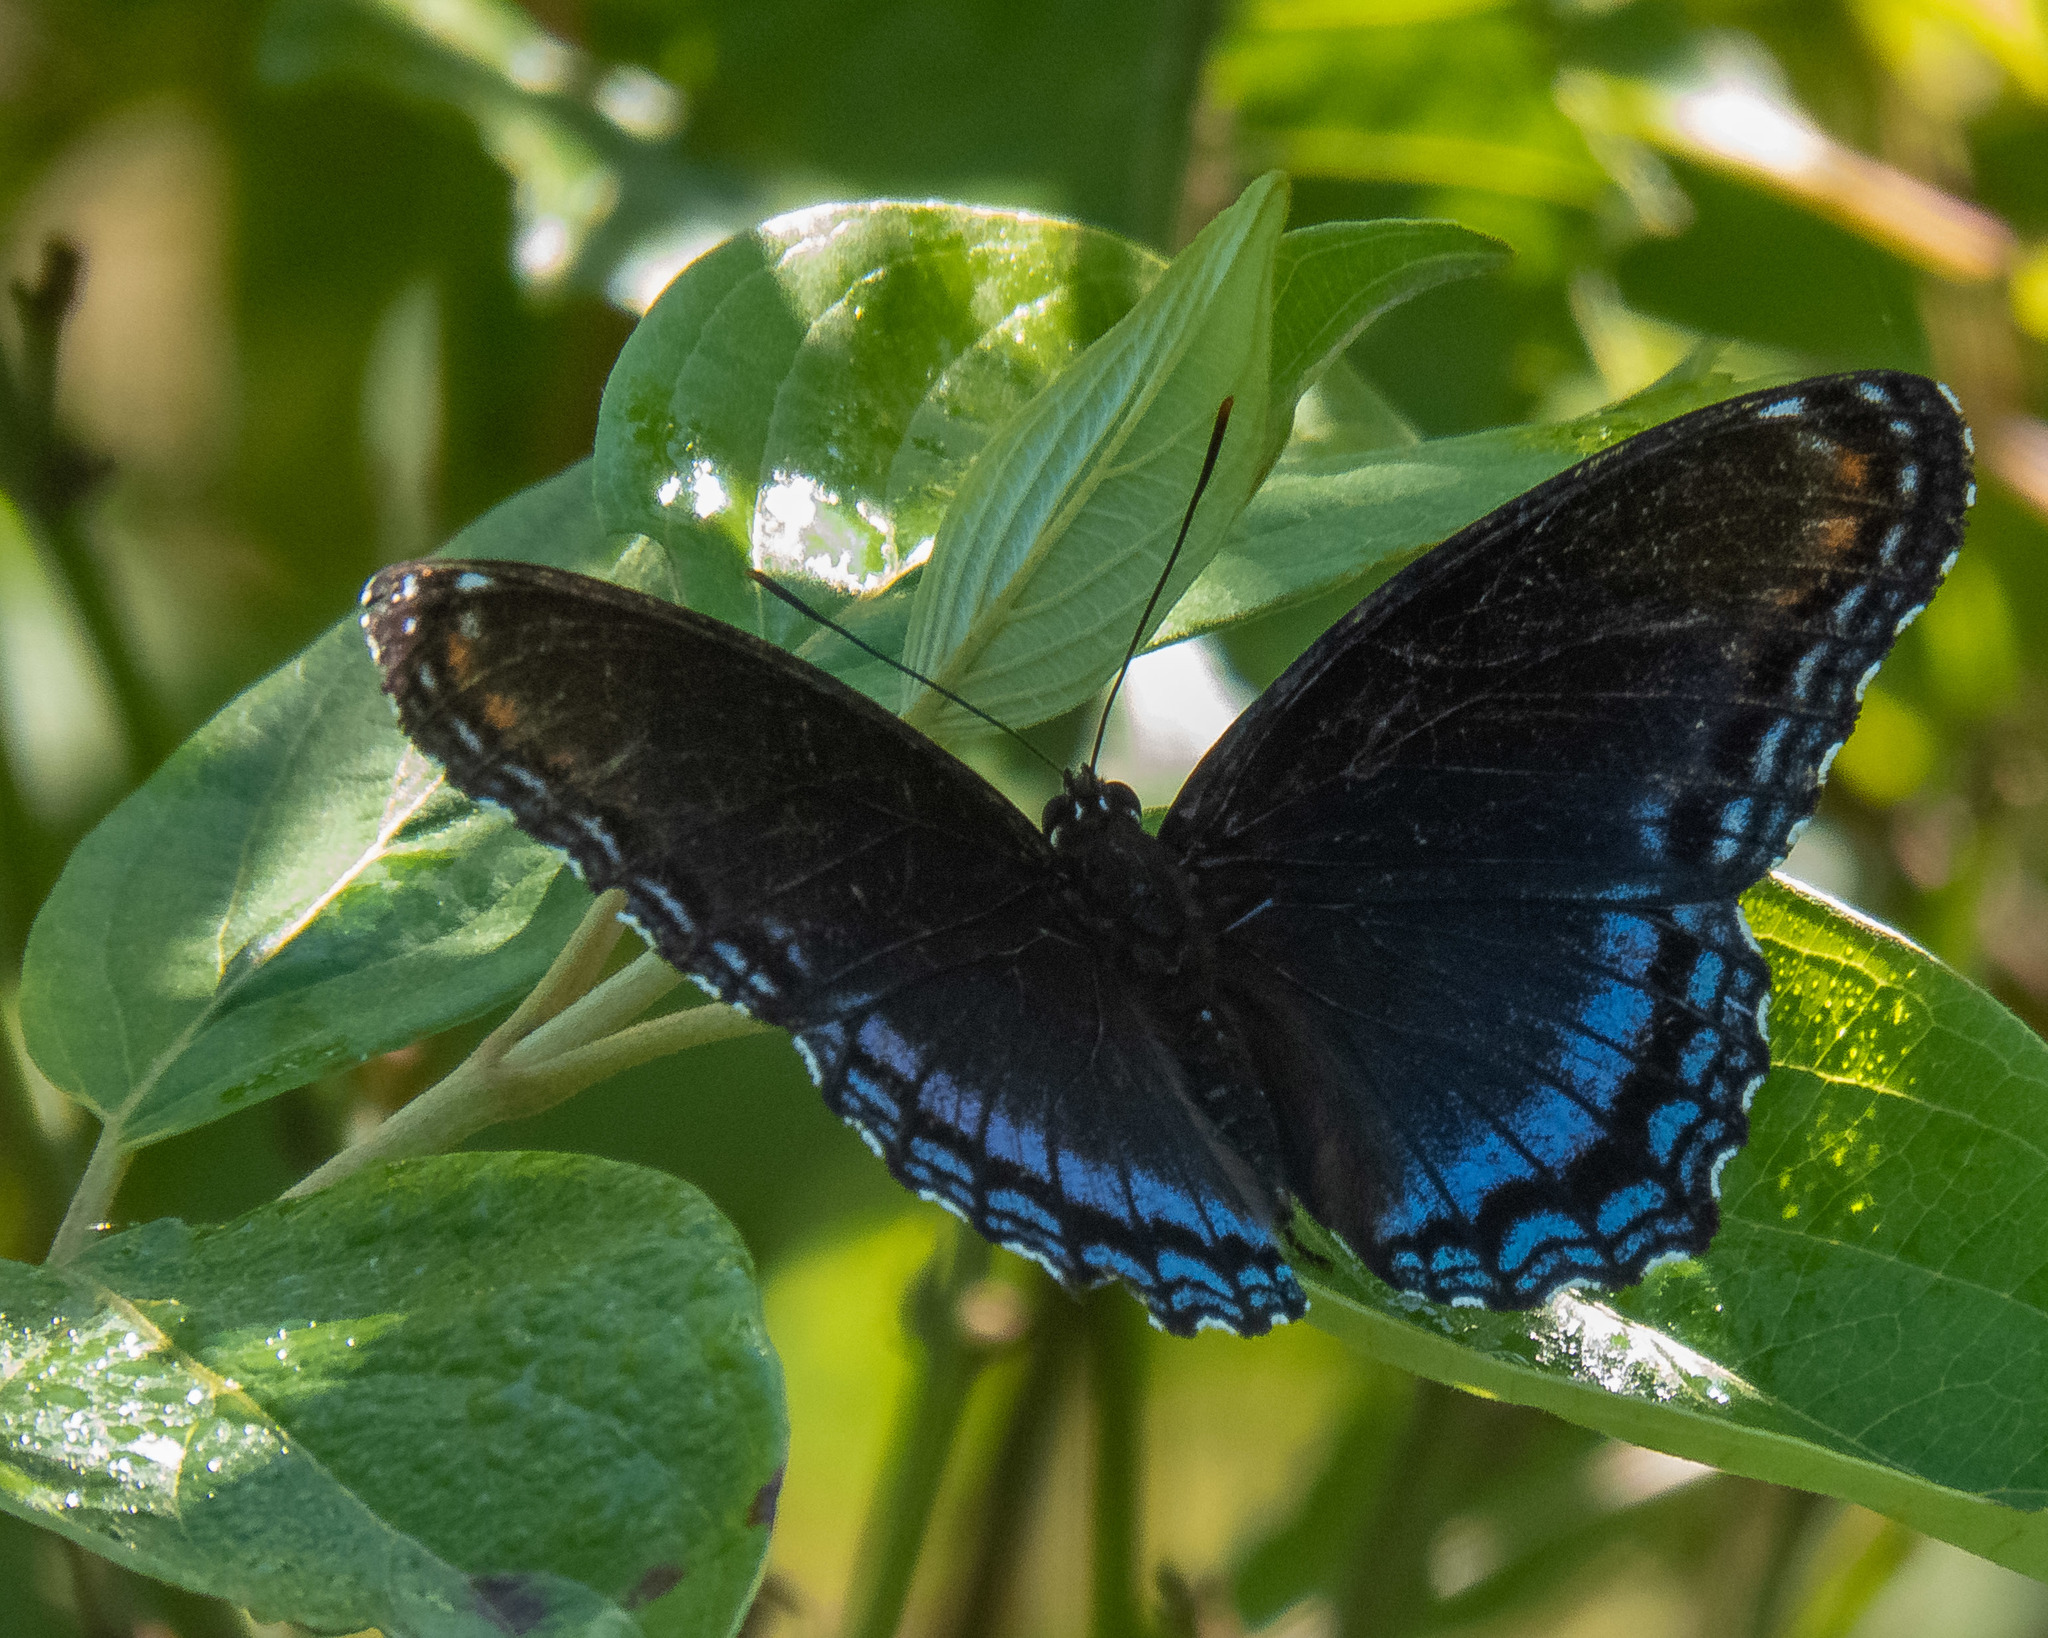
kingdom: Animalia
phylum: Arthropoda
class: Insecta
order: Lepidoptera
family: Nymphalidae
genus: Limenitis
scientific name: Limenitis arthemis
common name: Red-spotted admiral
